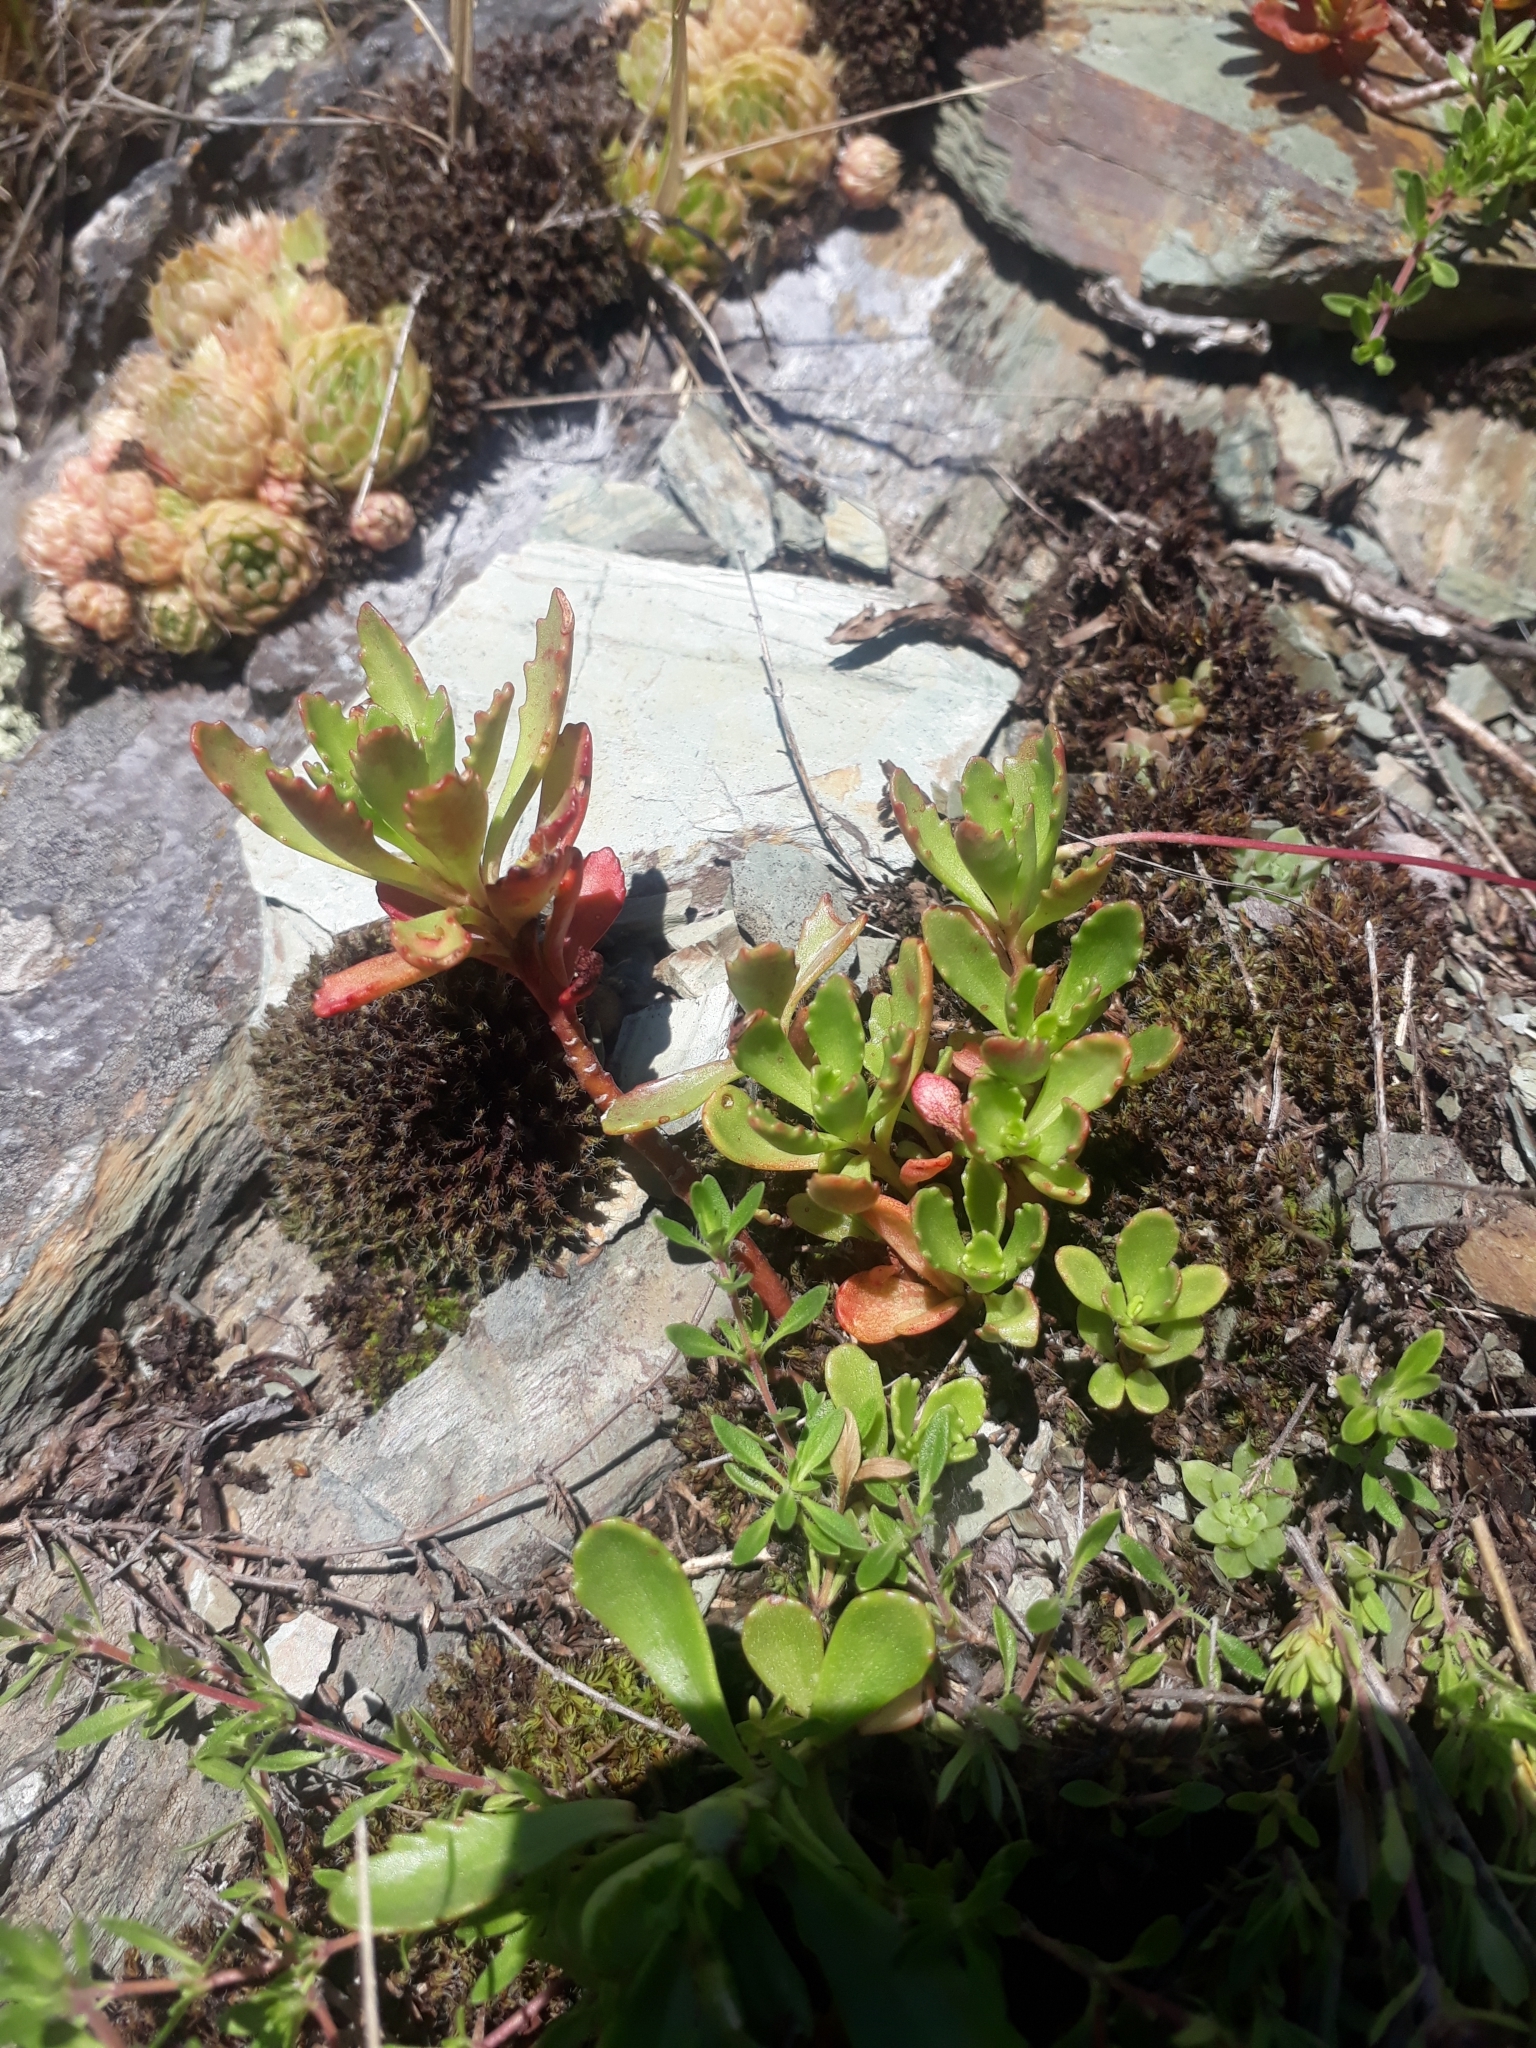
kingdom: Plantae
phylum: Tracheophyta
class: Magnoliopsida
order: Saxifragales
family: Crassulaceae
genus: Phedimus
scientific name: Phedimus hybridus
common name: Hybrid stonecrop
